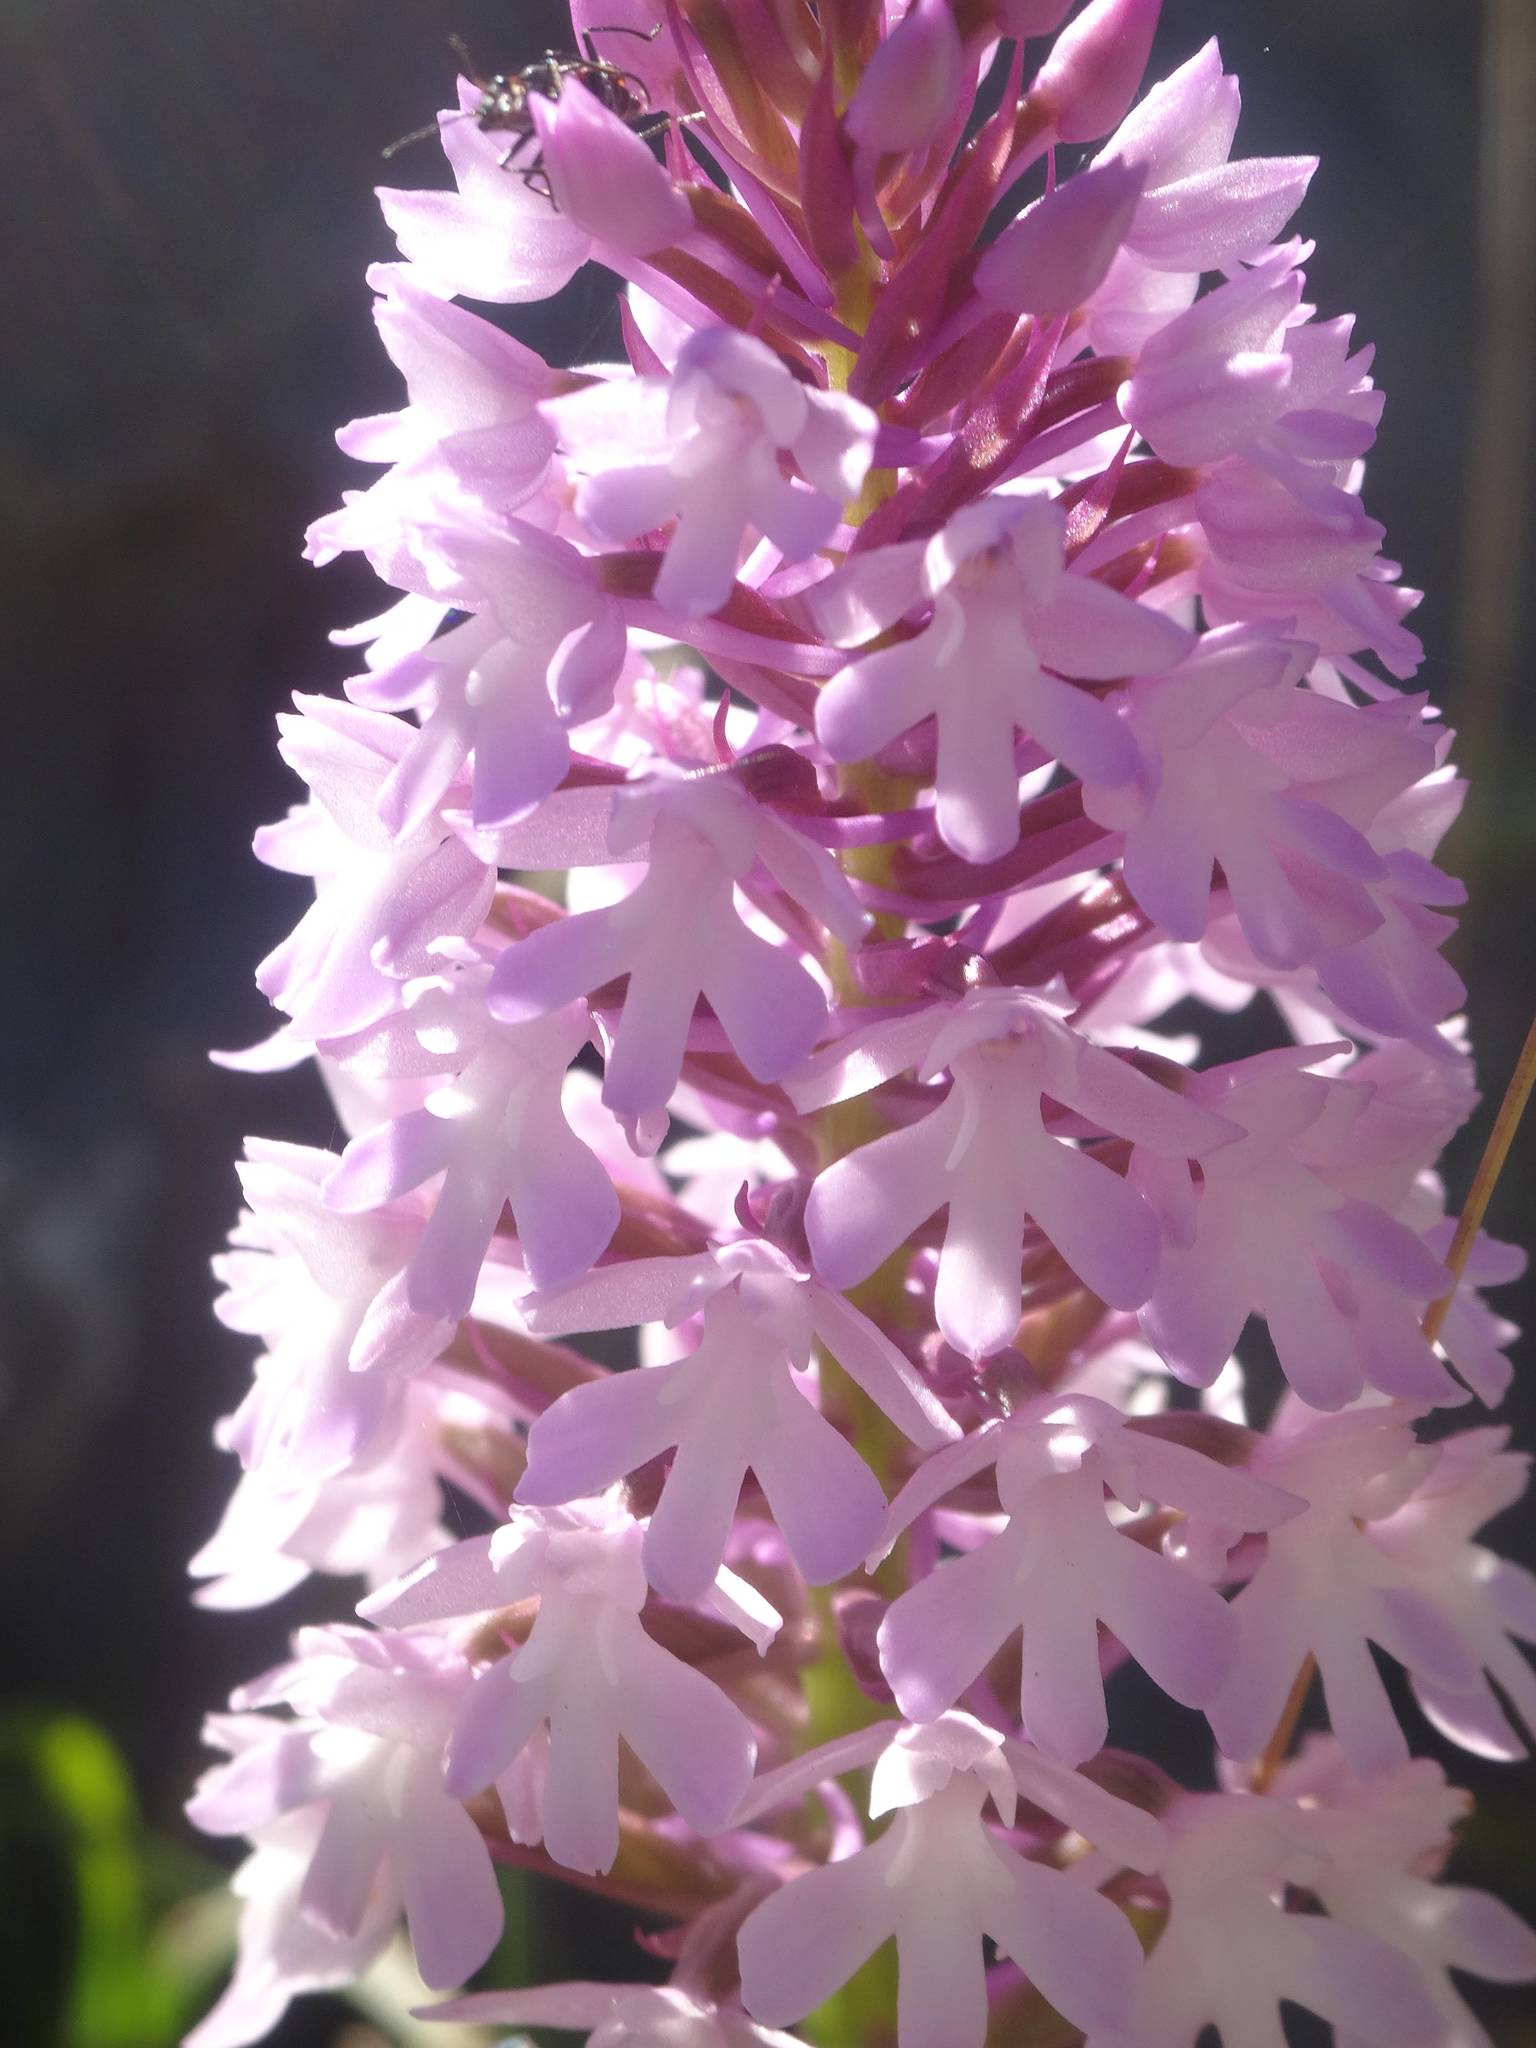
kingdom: Plantae
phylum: Tracheophyta
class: Liliopsida
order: Asparagales
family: Orchidaceae
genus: Anacamptis
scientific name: Anacamptis pyramidalis
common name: Pyramidal orchid
